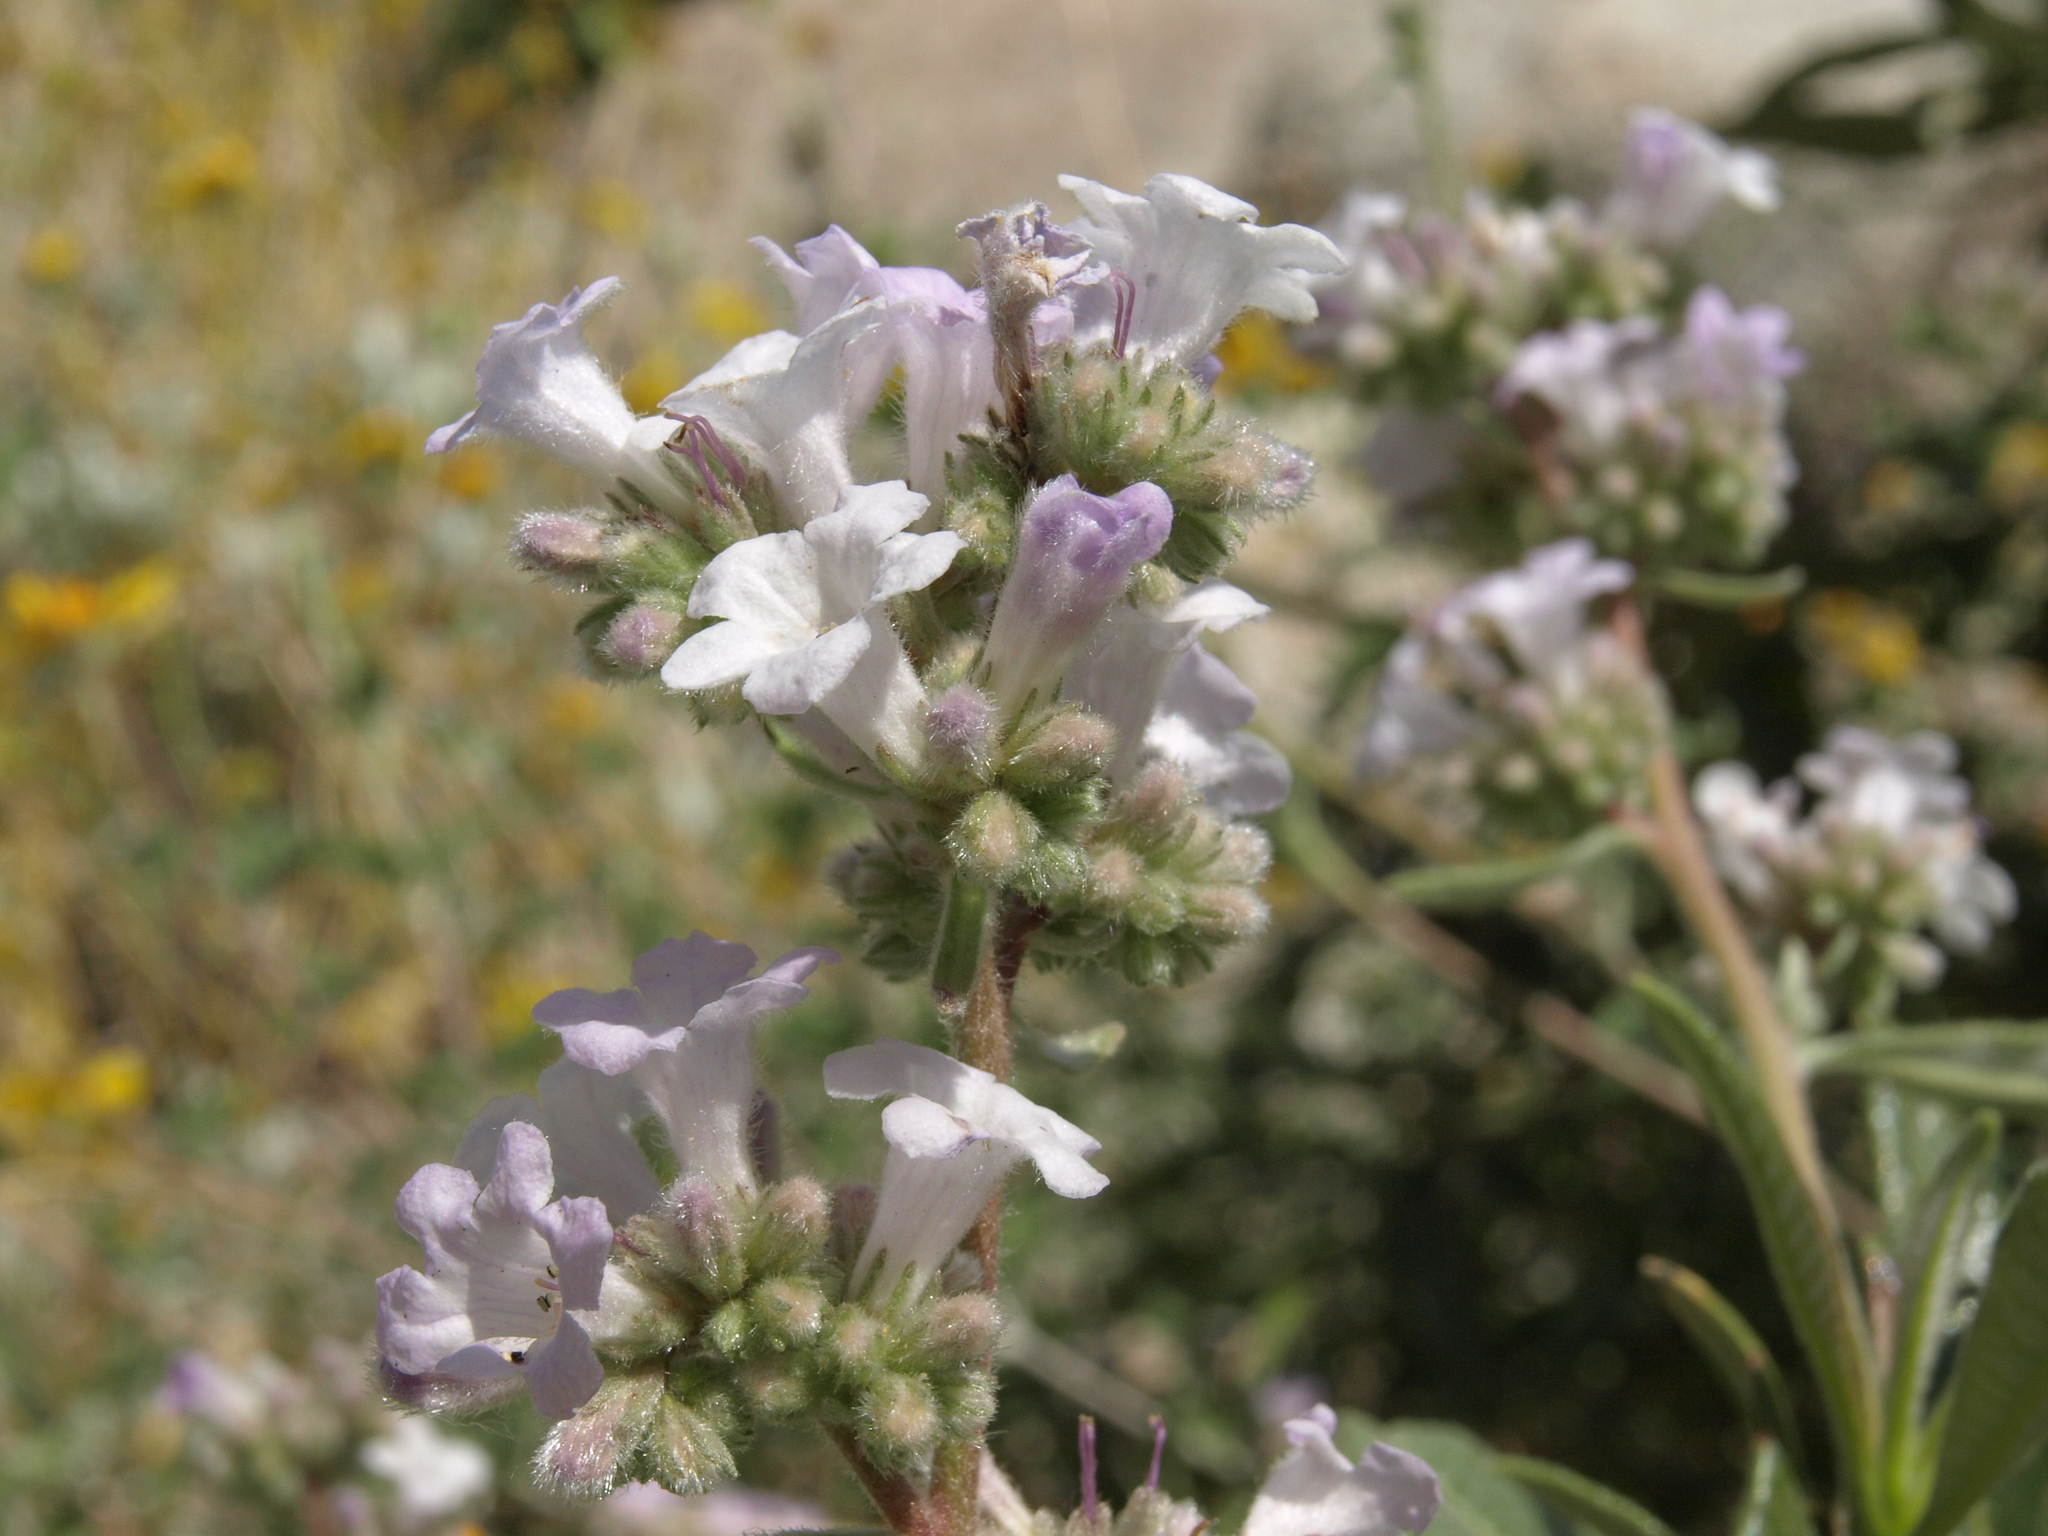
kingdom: Plantae
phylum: Tracheophyta
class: Magnoliopsida
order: Boraginales
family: Namaceae
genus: Eriodictyon
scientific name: Eriodictyon trichocalyx
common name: Hairy yerba-santa
